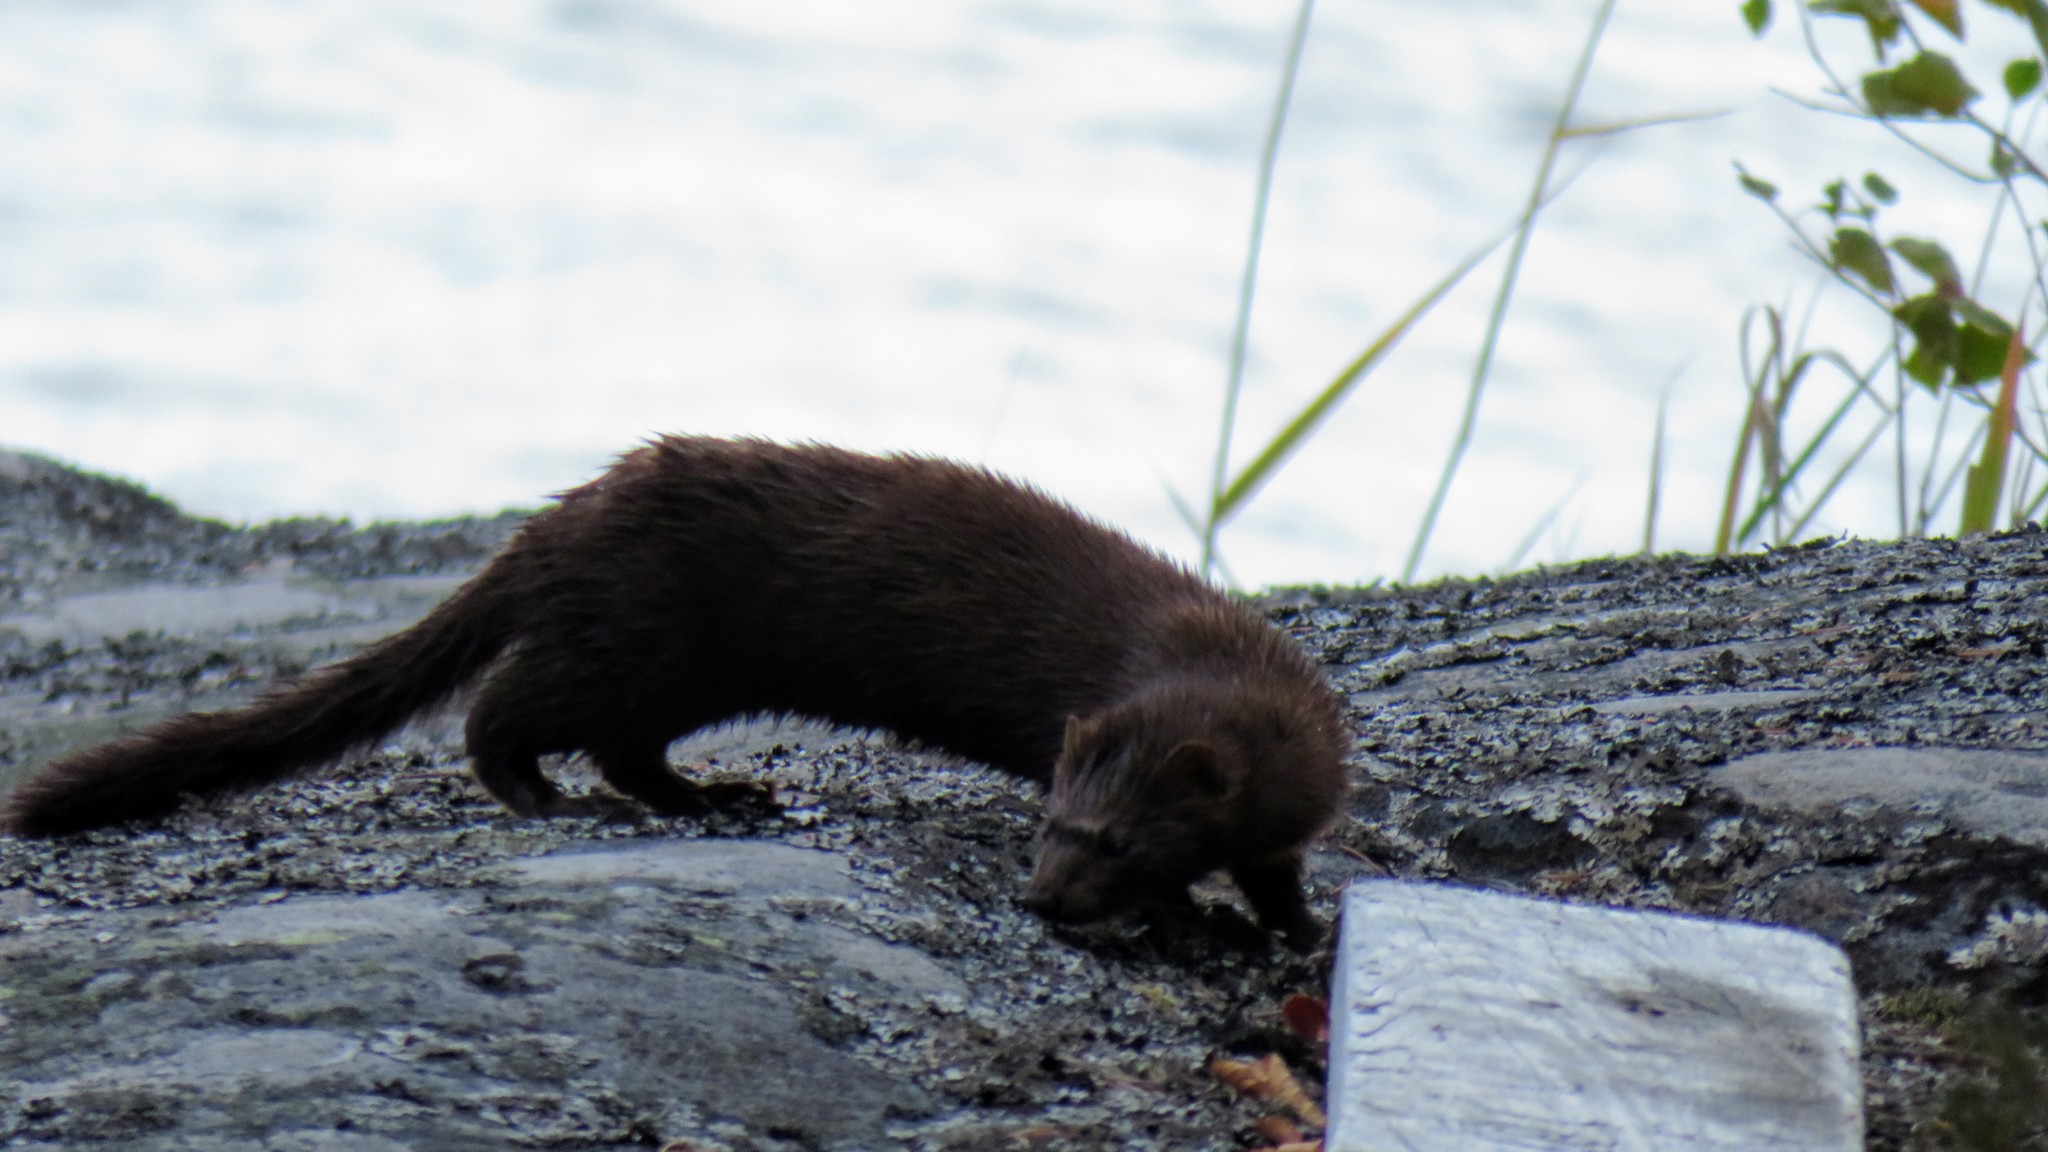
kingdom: Animalia
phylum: Chordata
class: Mammalia
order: Carnivora
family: Mustelidae
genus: Mustela
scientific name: Mustela
